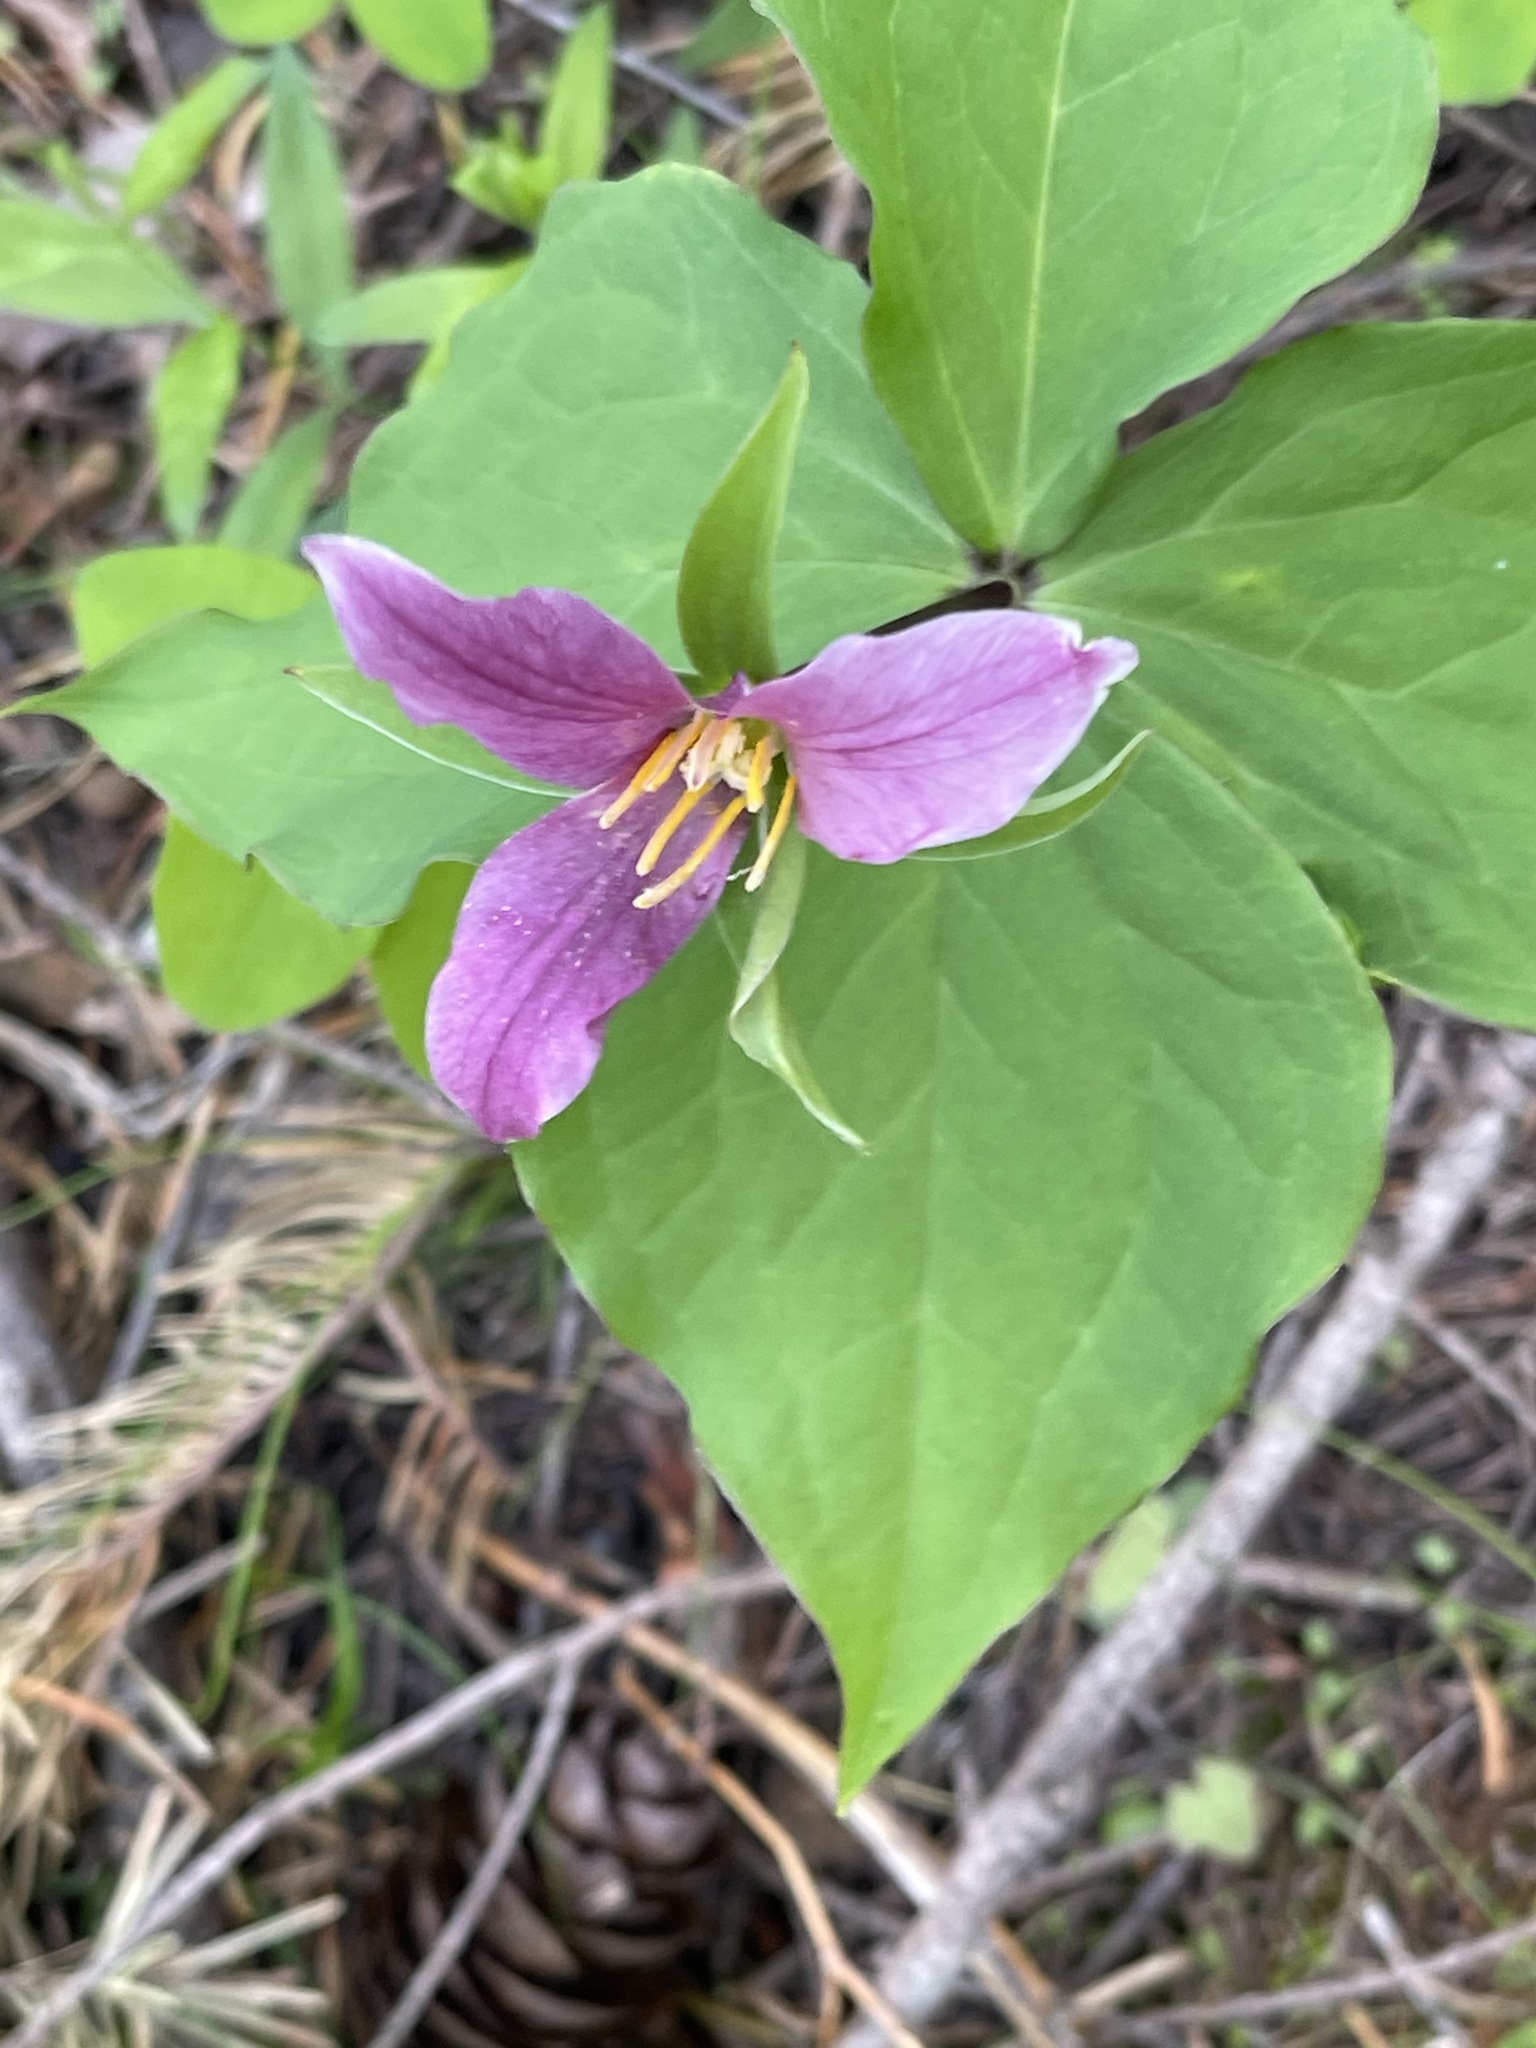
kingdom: Plantae
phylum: Tracheophyta
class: Liliopsida
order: Liliales
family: Melanthiaceae
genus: Trillium
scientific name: Trillium ovatum
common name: Pacific trillium
